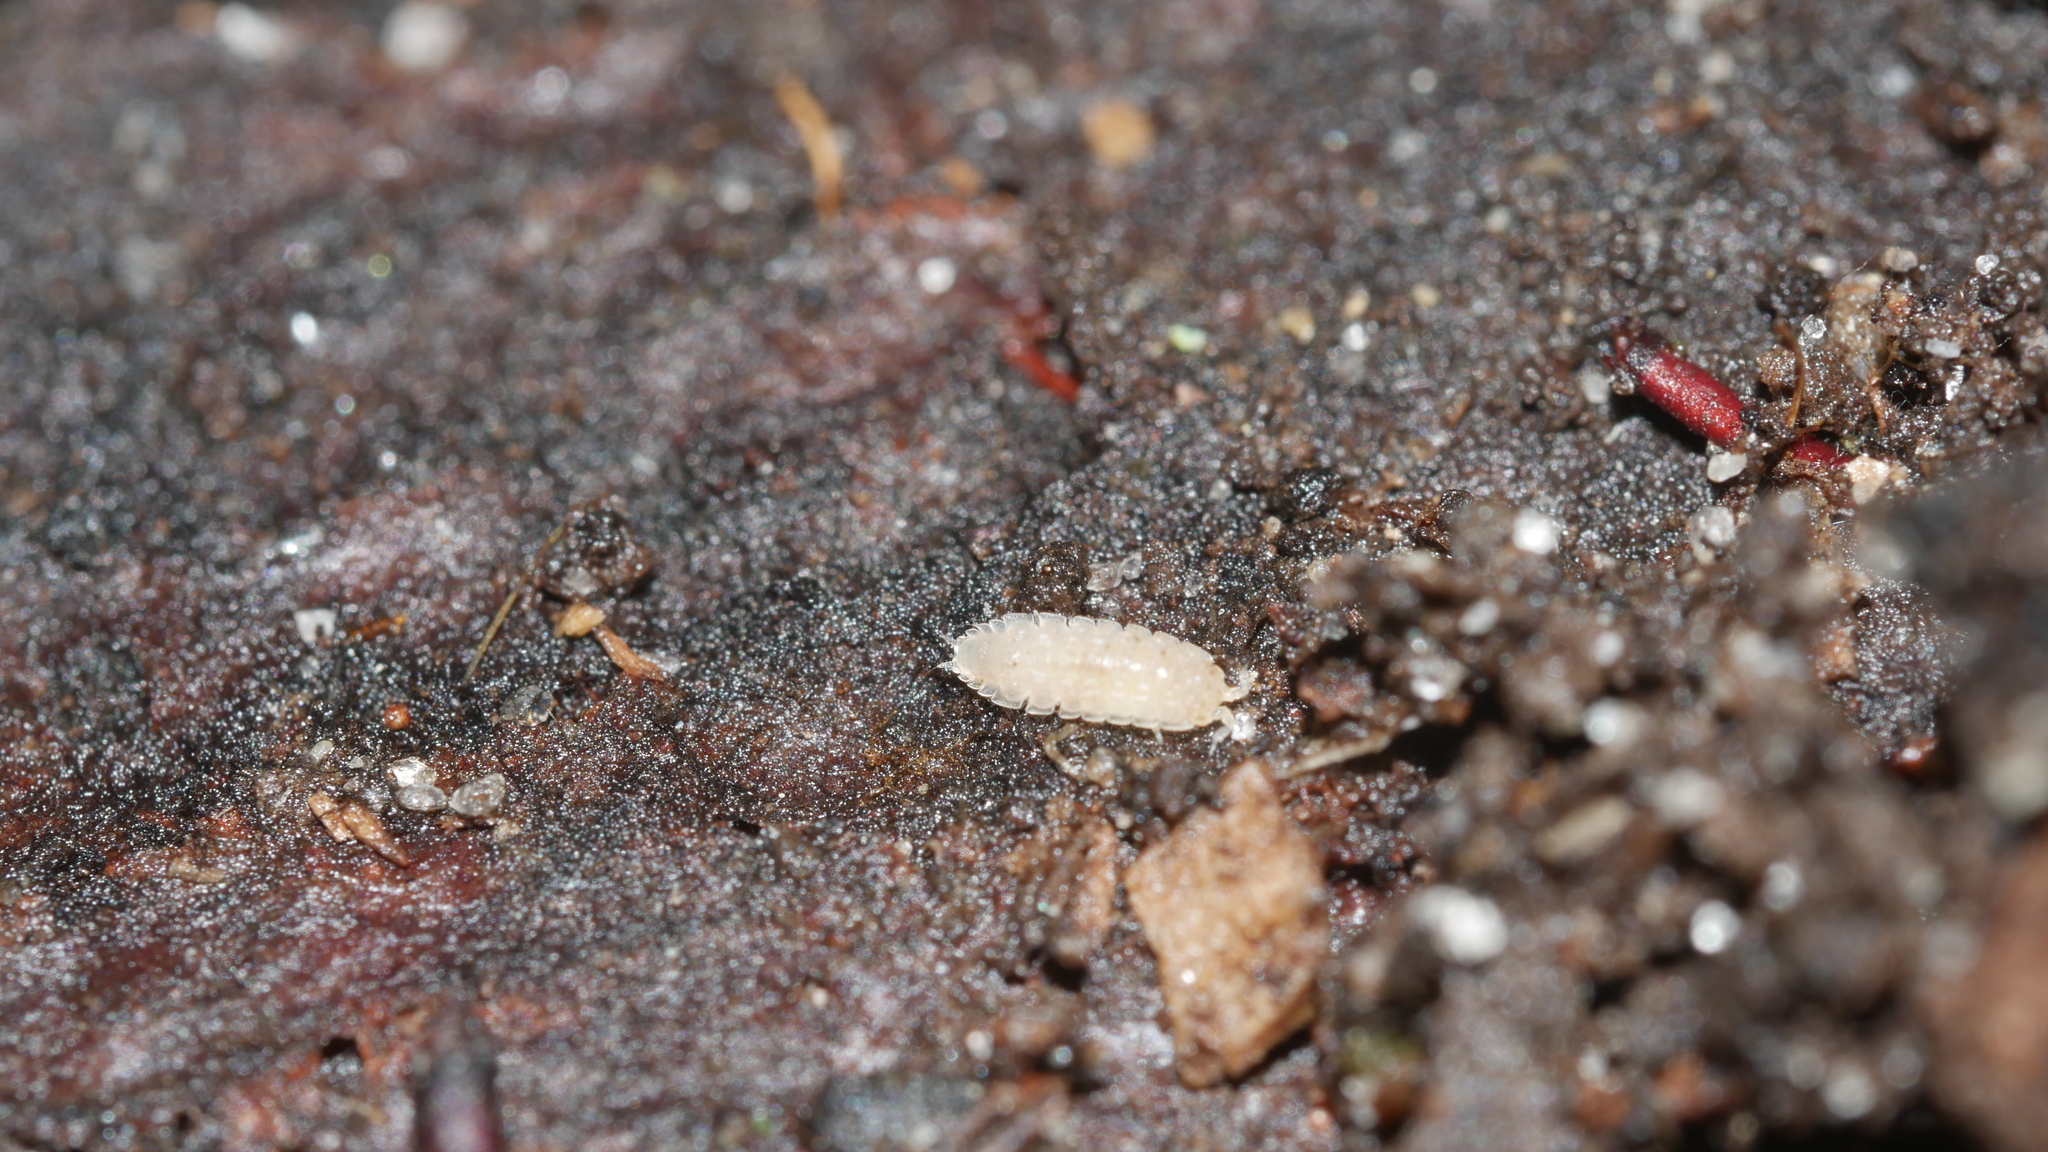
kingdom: Animalia
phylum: Arthropoda
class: Malacostraca
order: Isopoda
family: Trichoniscidae
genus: Haplophthalmus
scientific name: Haplophthalmus danicus
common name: Pillbug
